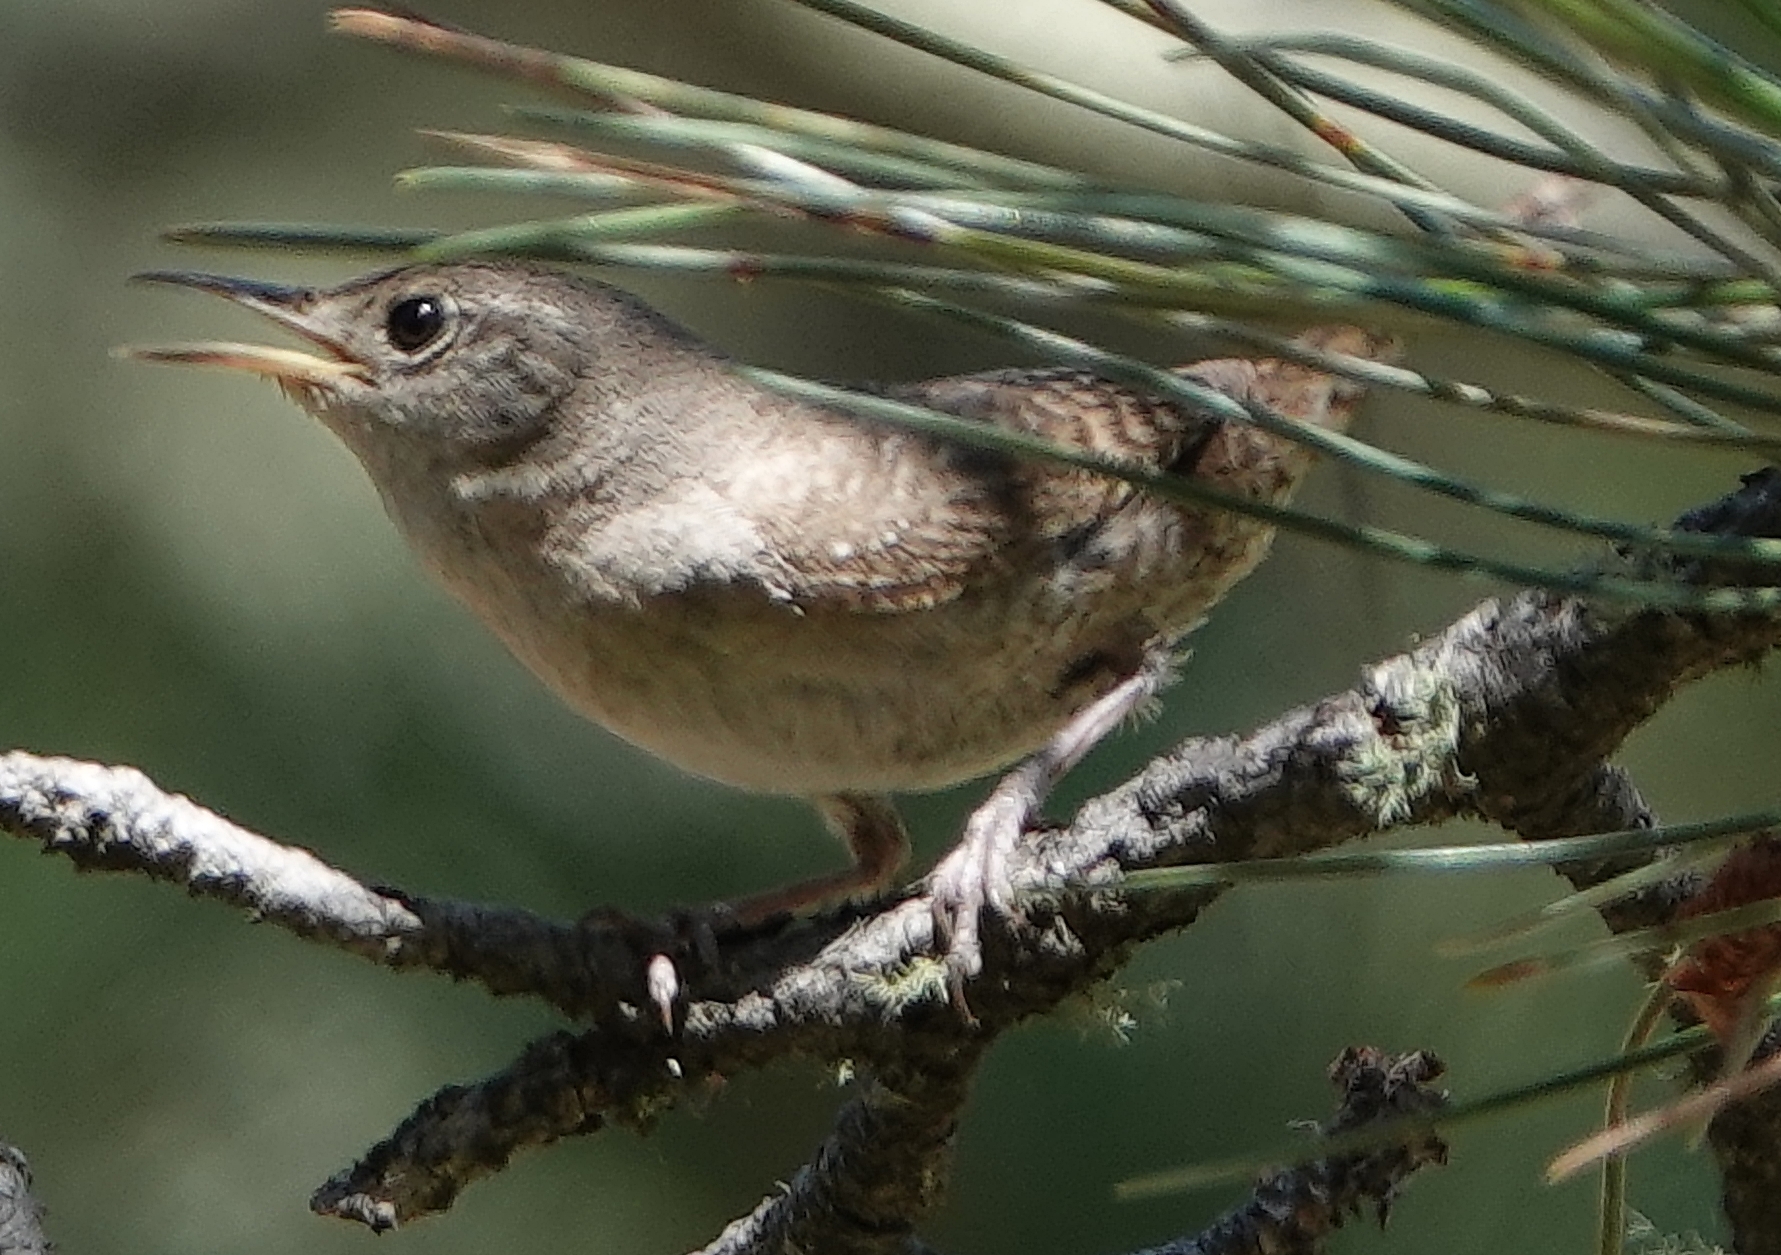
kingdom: Animalia
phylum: Chordata
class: Aves
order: Passeriformes
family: Troglodytidae
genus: Troglodytes
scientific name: Troglodytes aedon
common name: House wren
